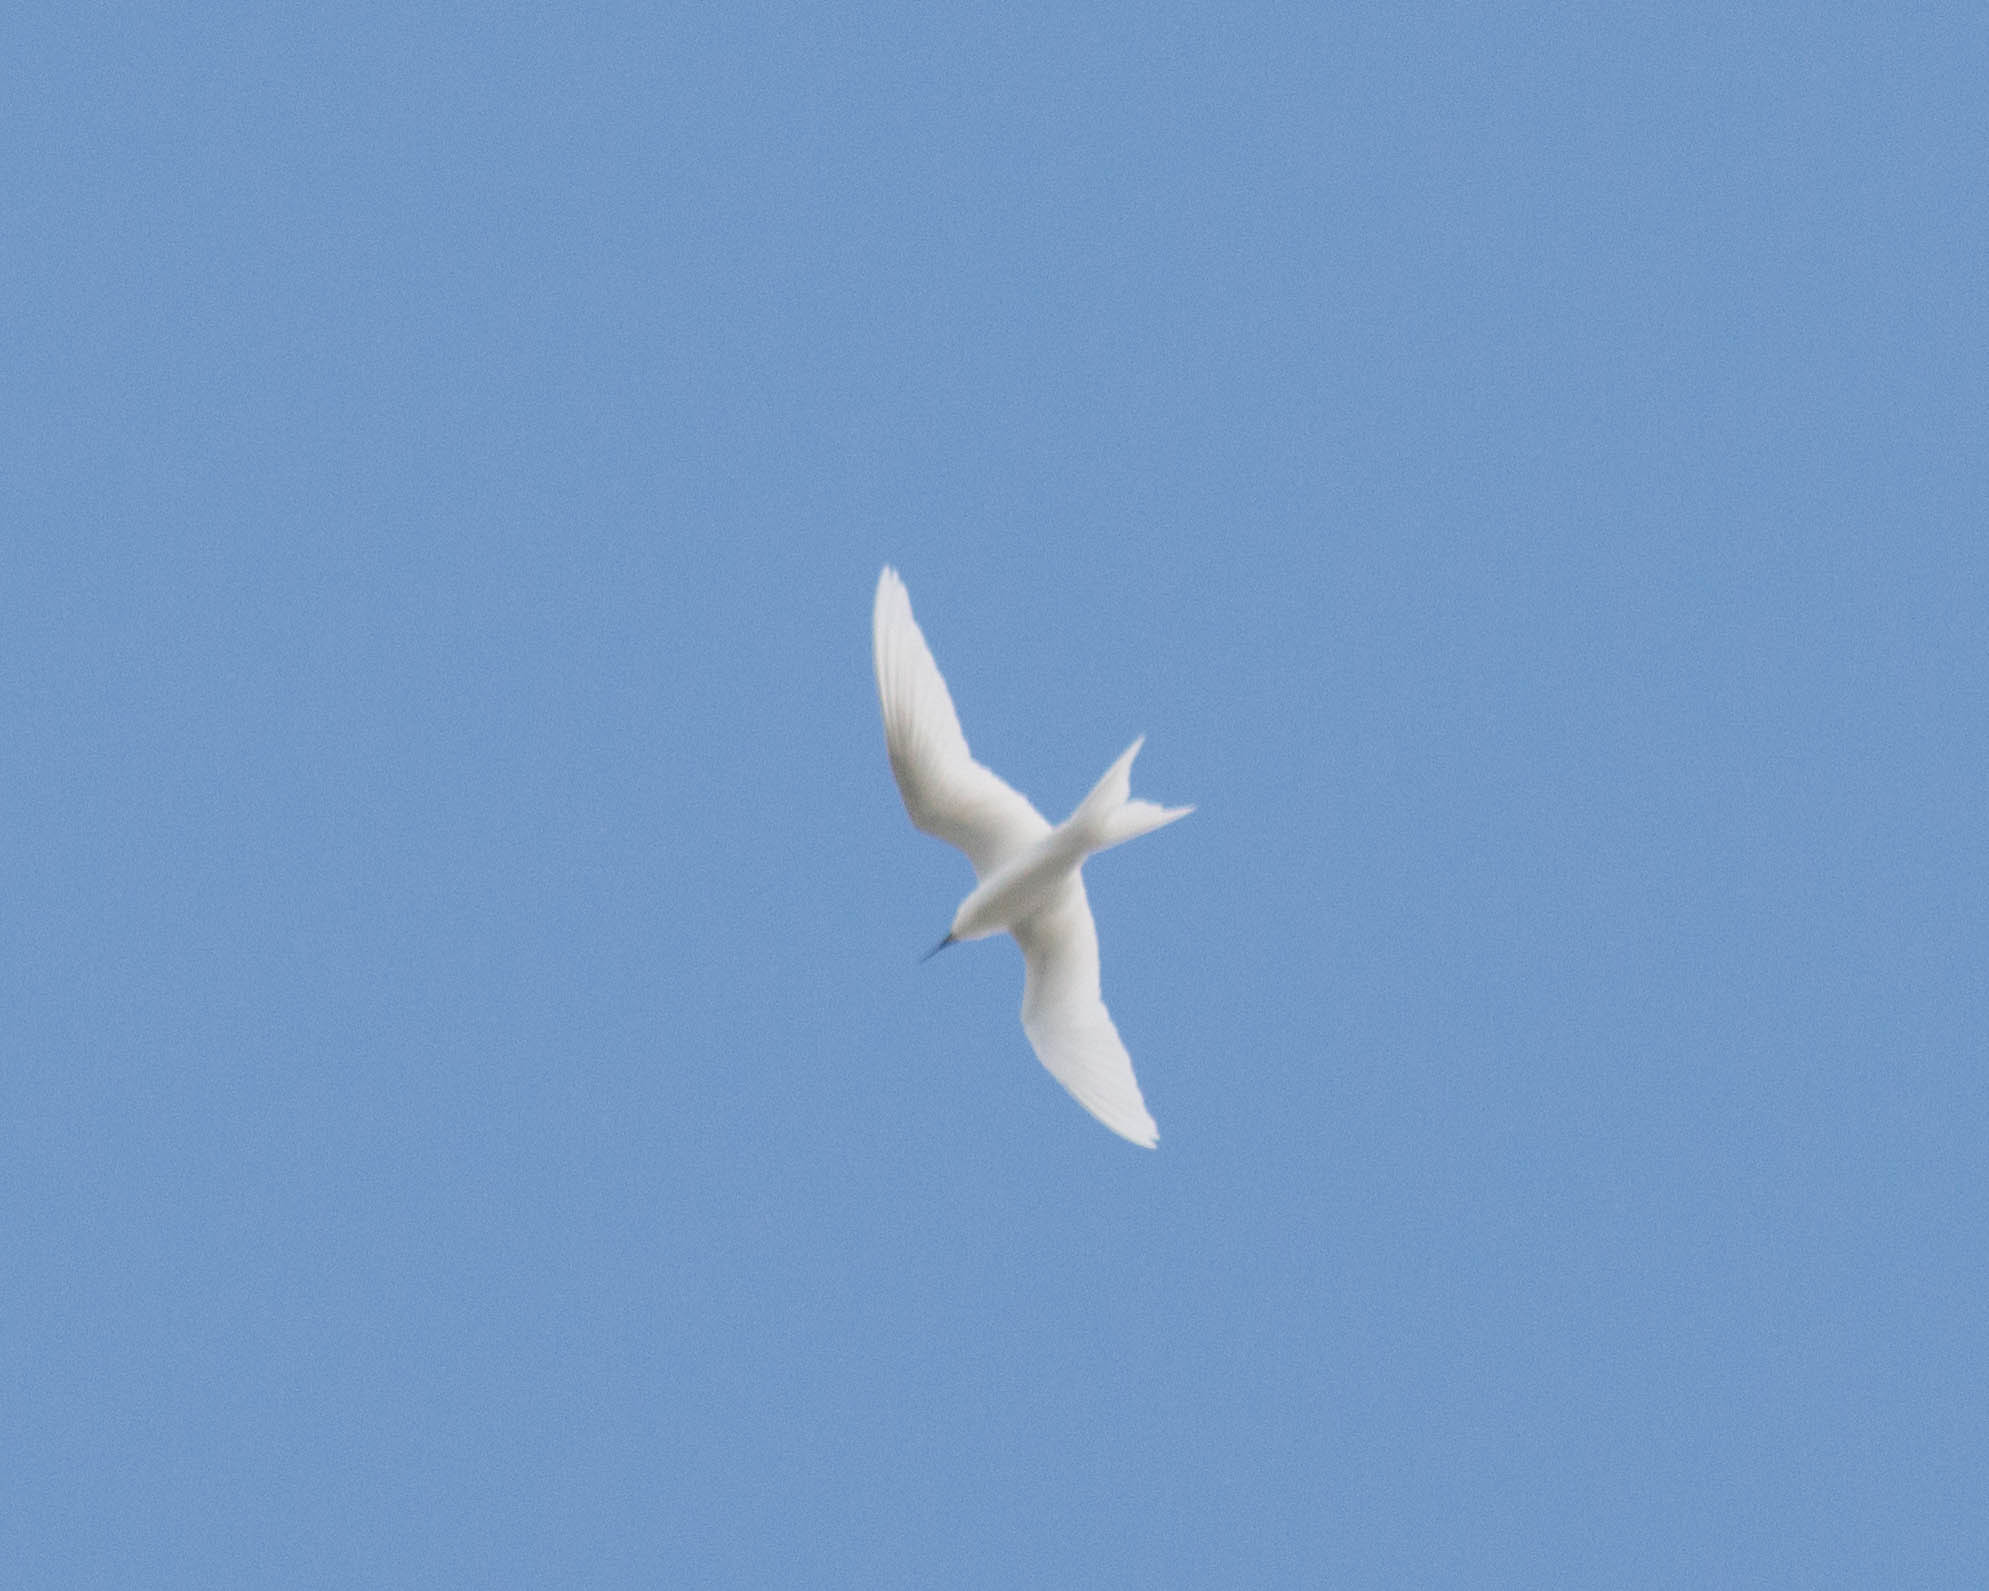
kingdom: Animalia
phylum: Chordata
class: Aves
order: Charadriiformes
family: Laridae
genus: Gygis
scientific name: Gygis alba
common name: White tern
